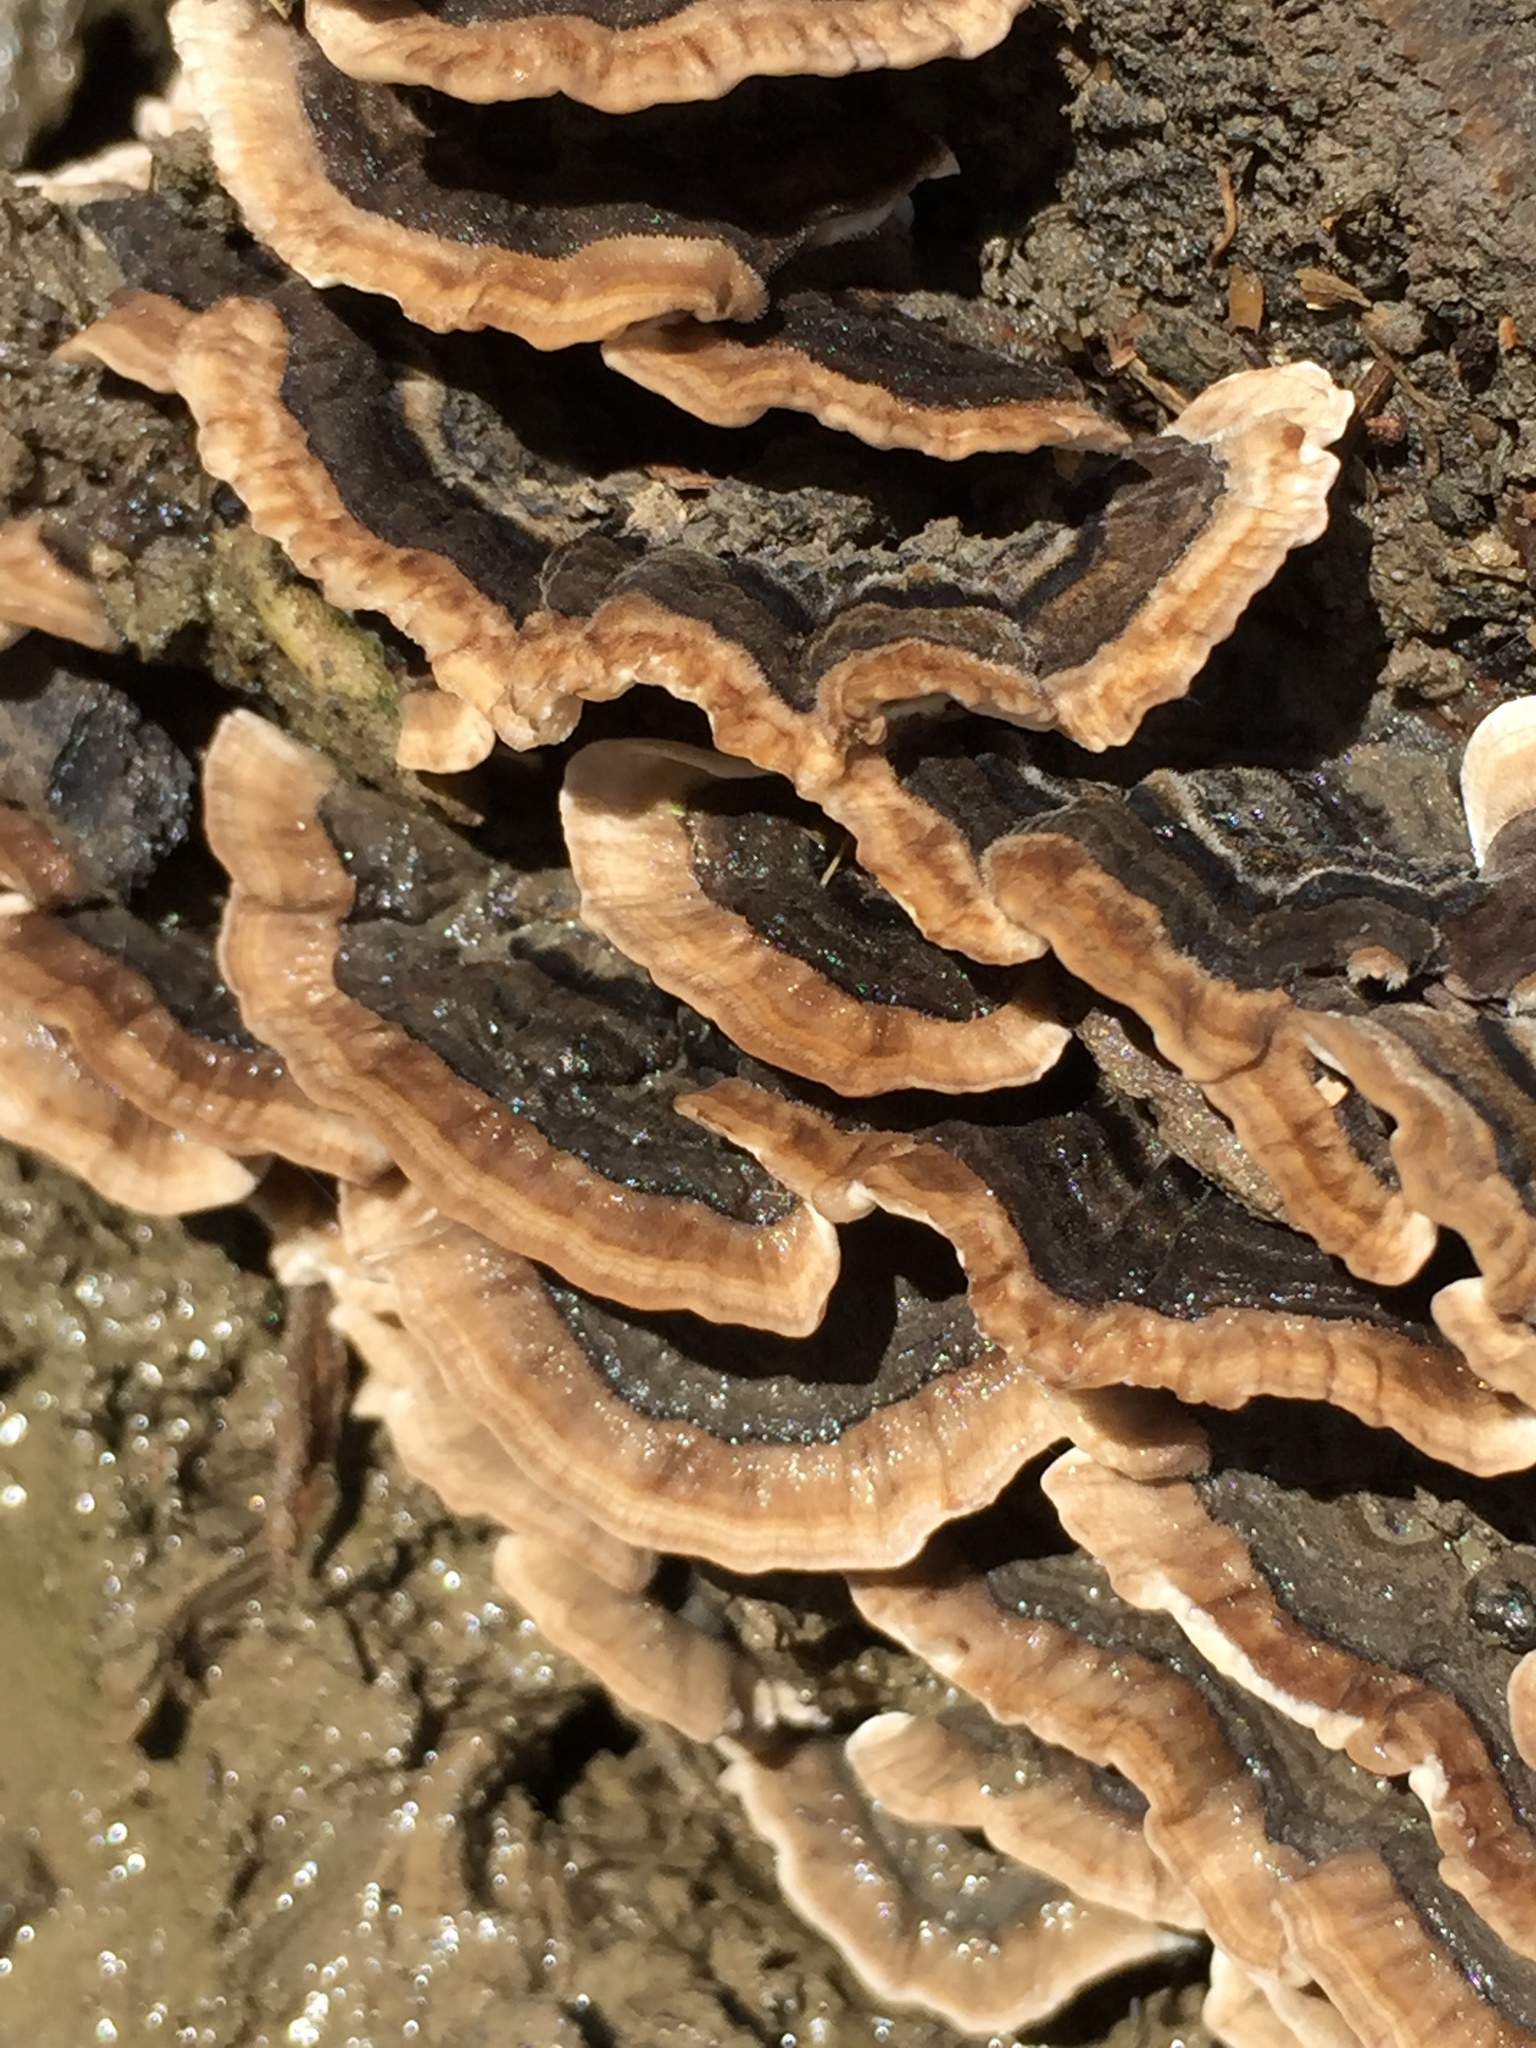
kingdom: Fungi
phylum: Basidiomycota
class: Agaricomycetes
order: Polyporales
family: Polyporaceae
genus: Trametes
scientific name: Trametes versicolor
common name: Turkeytail
